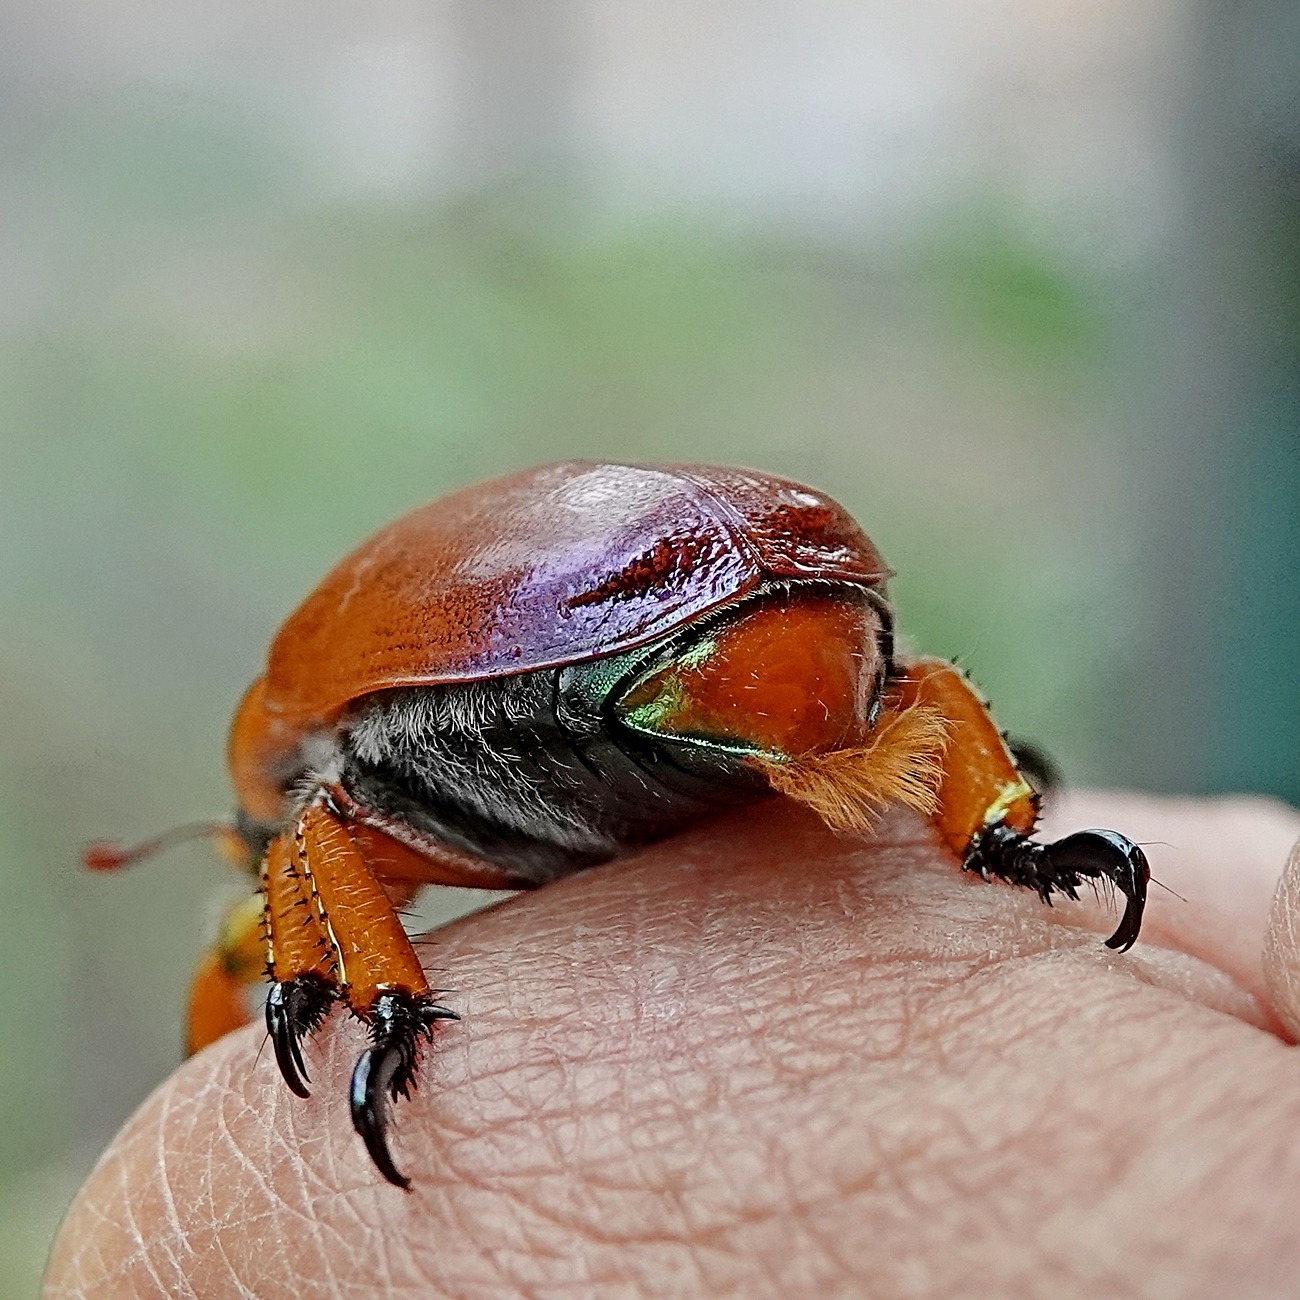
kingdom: Animalia
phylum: Arthropoda
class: Insecta
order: Coleoptera
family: Scarabaeidae
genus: Anoplognathus
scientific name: Anoplognathus viriditarsis
